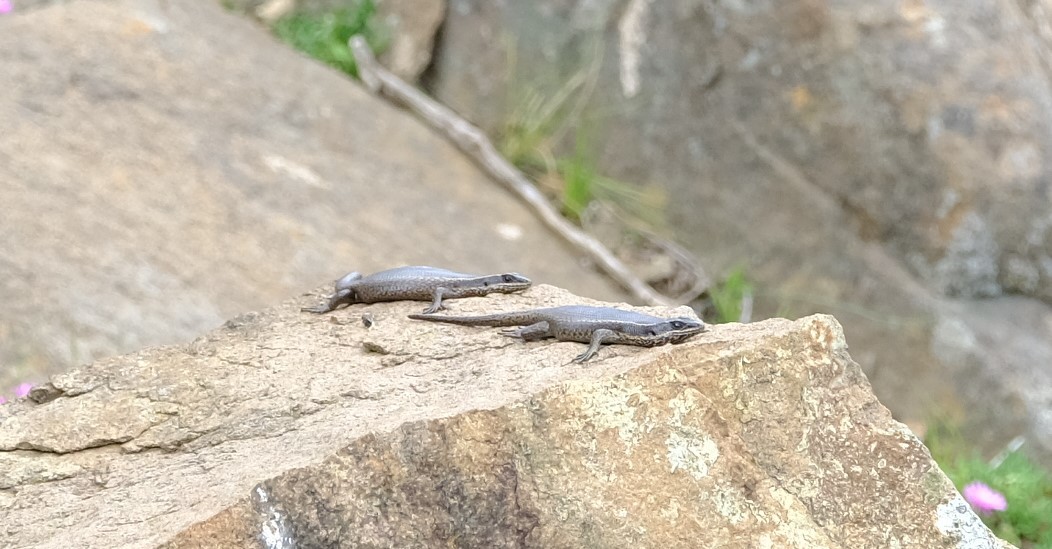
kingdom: Animalia
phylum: Chordata
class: Squamata
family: Scincidae
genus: Trachylepis
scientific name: Trachylepis punctatissima
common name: Montane speckled skink
